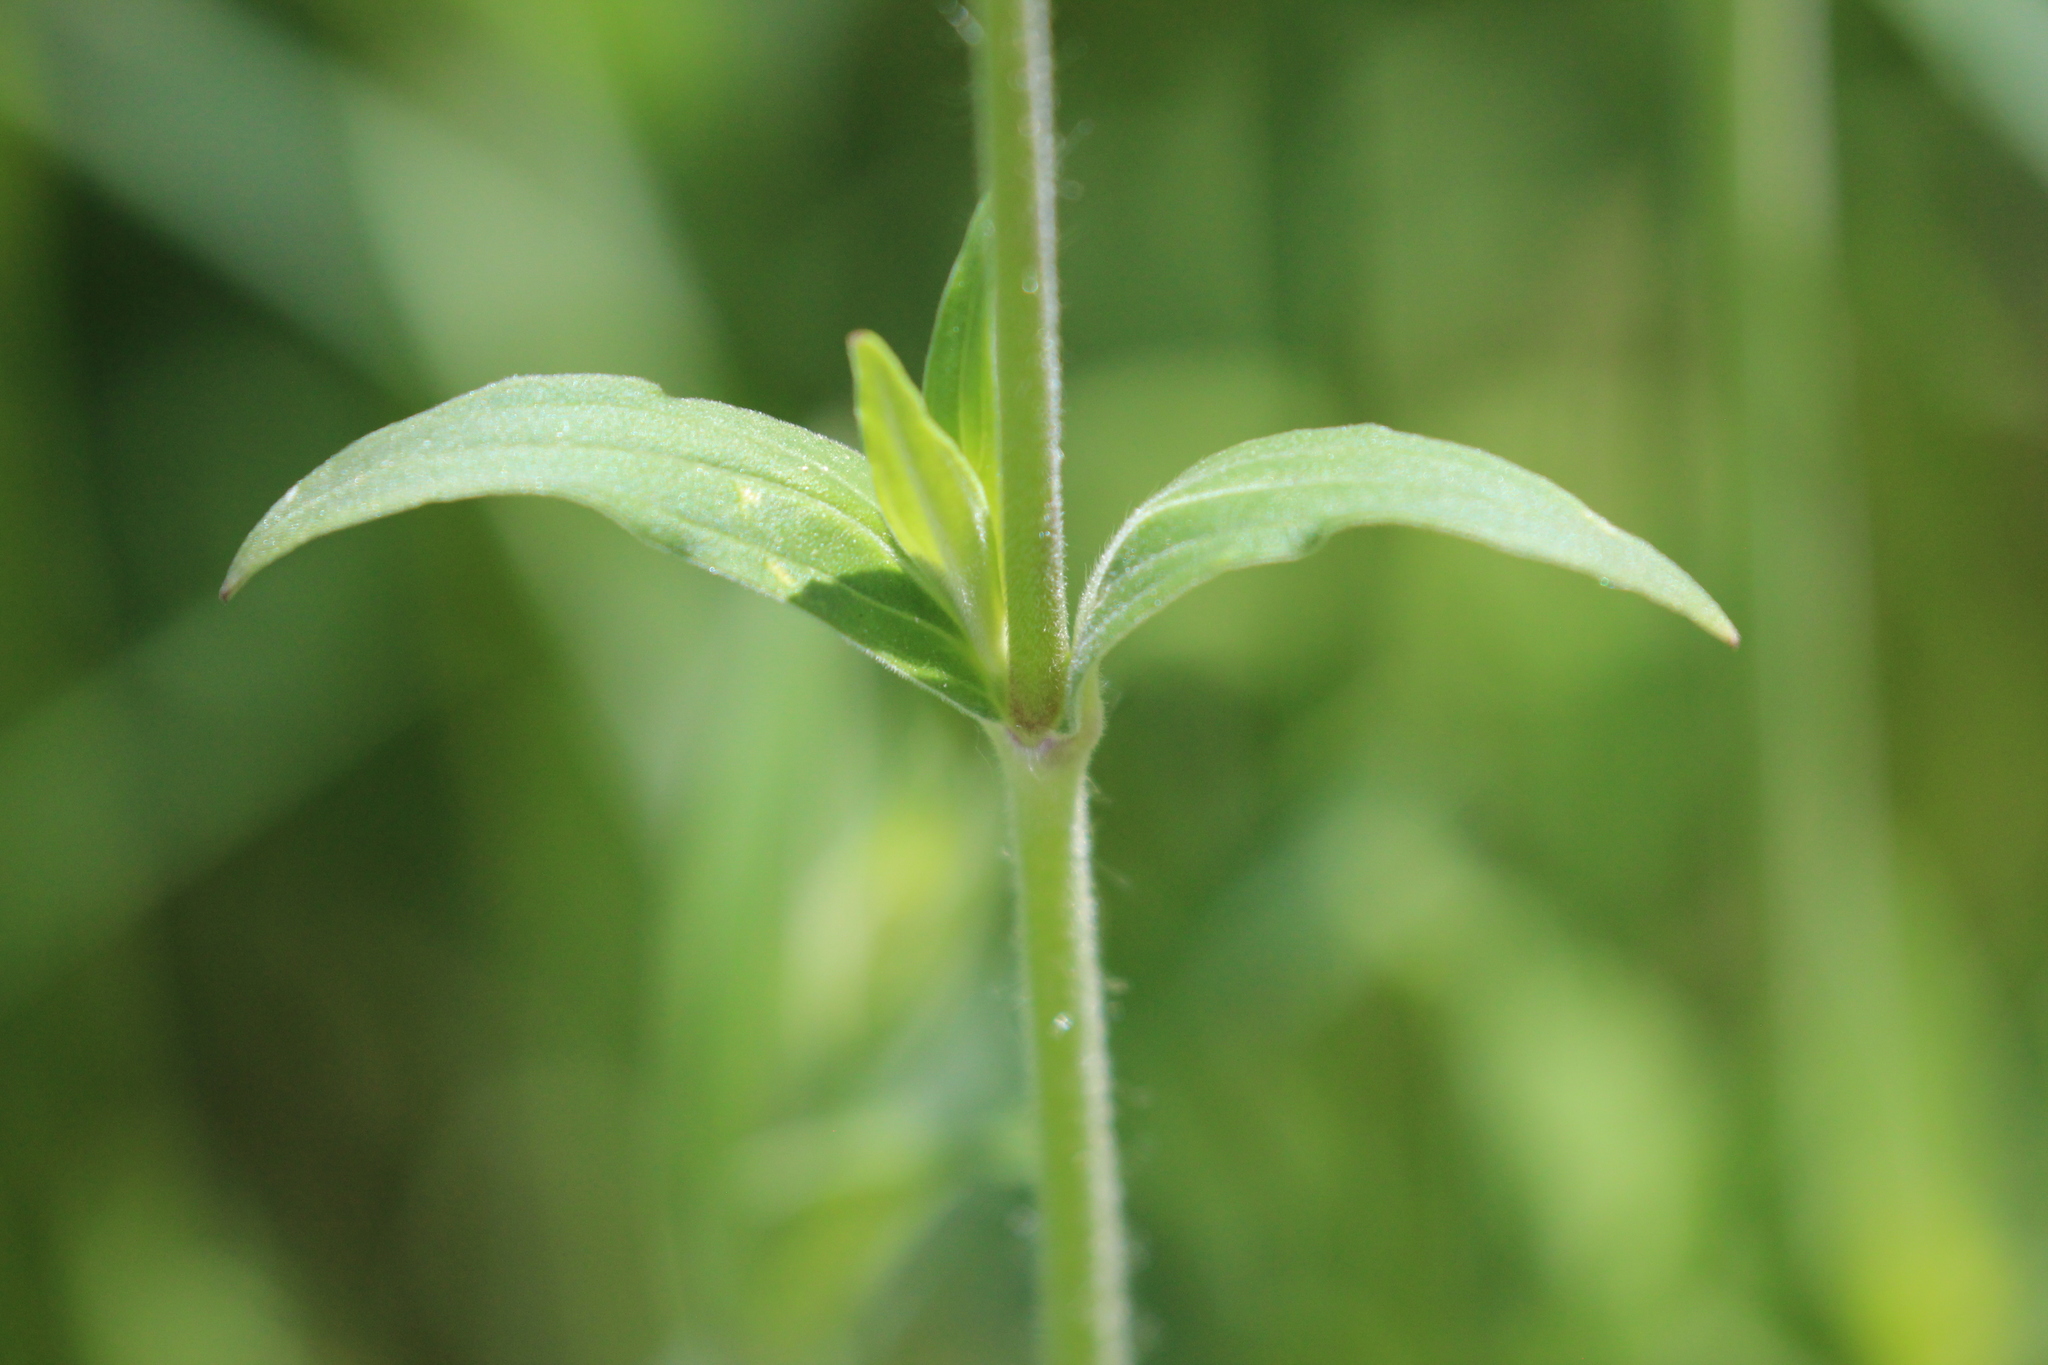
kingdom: Plantae
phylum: Tracheophyta
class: Magnoliopsida
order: Caryophyllales
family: Caryophyllaceae
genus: Silene
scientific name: Silene latifolia
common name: White campion
